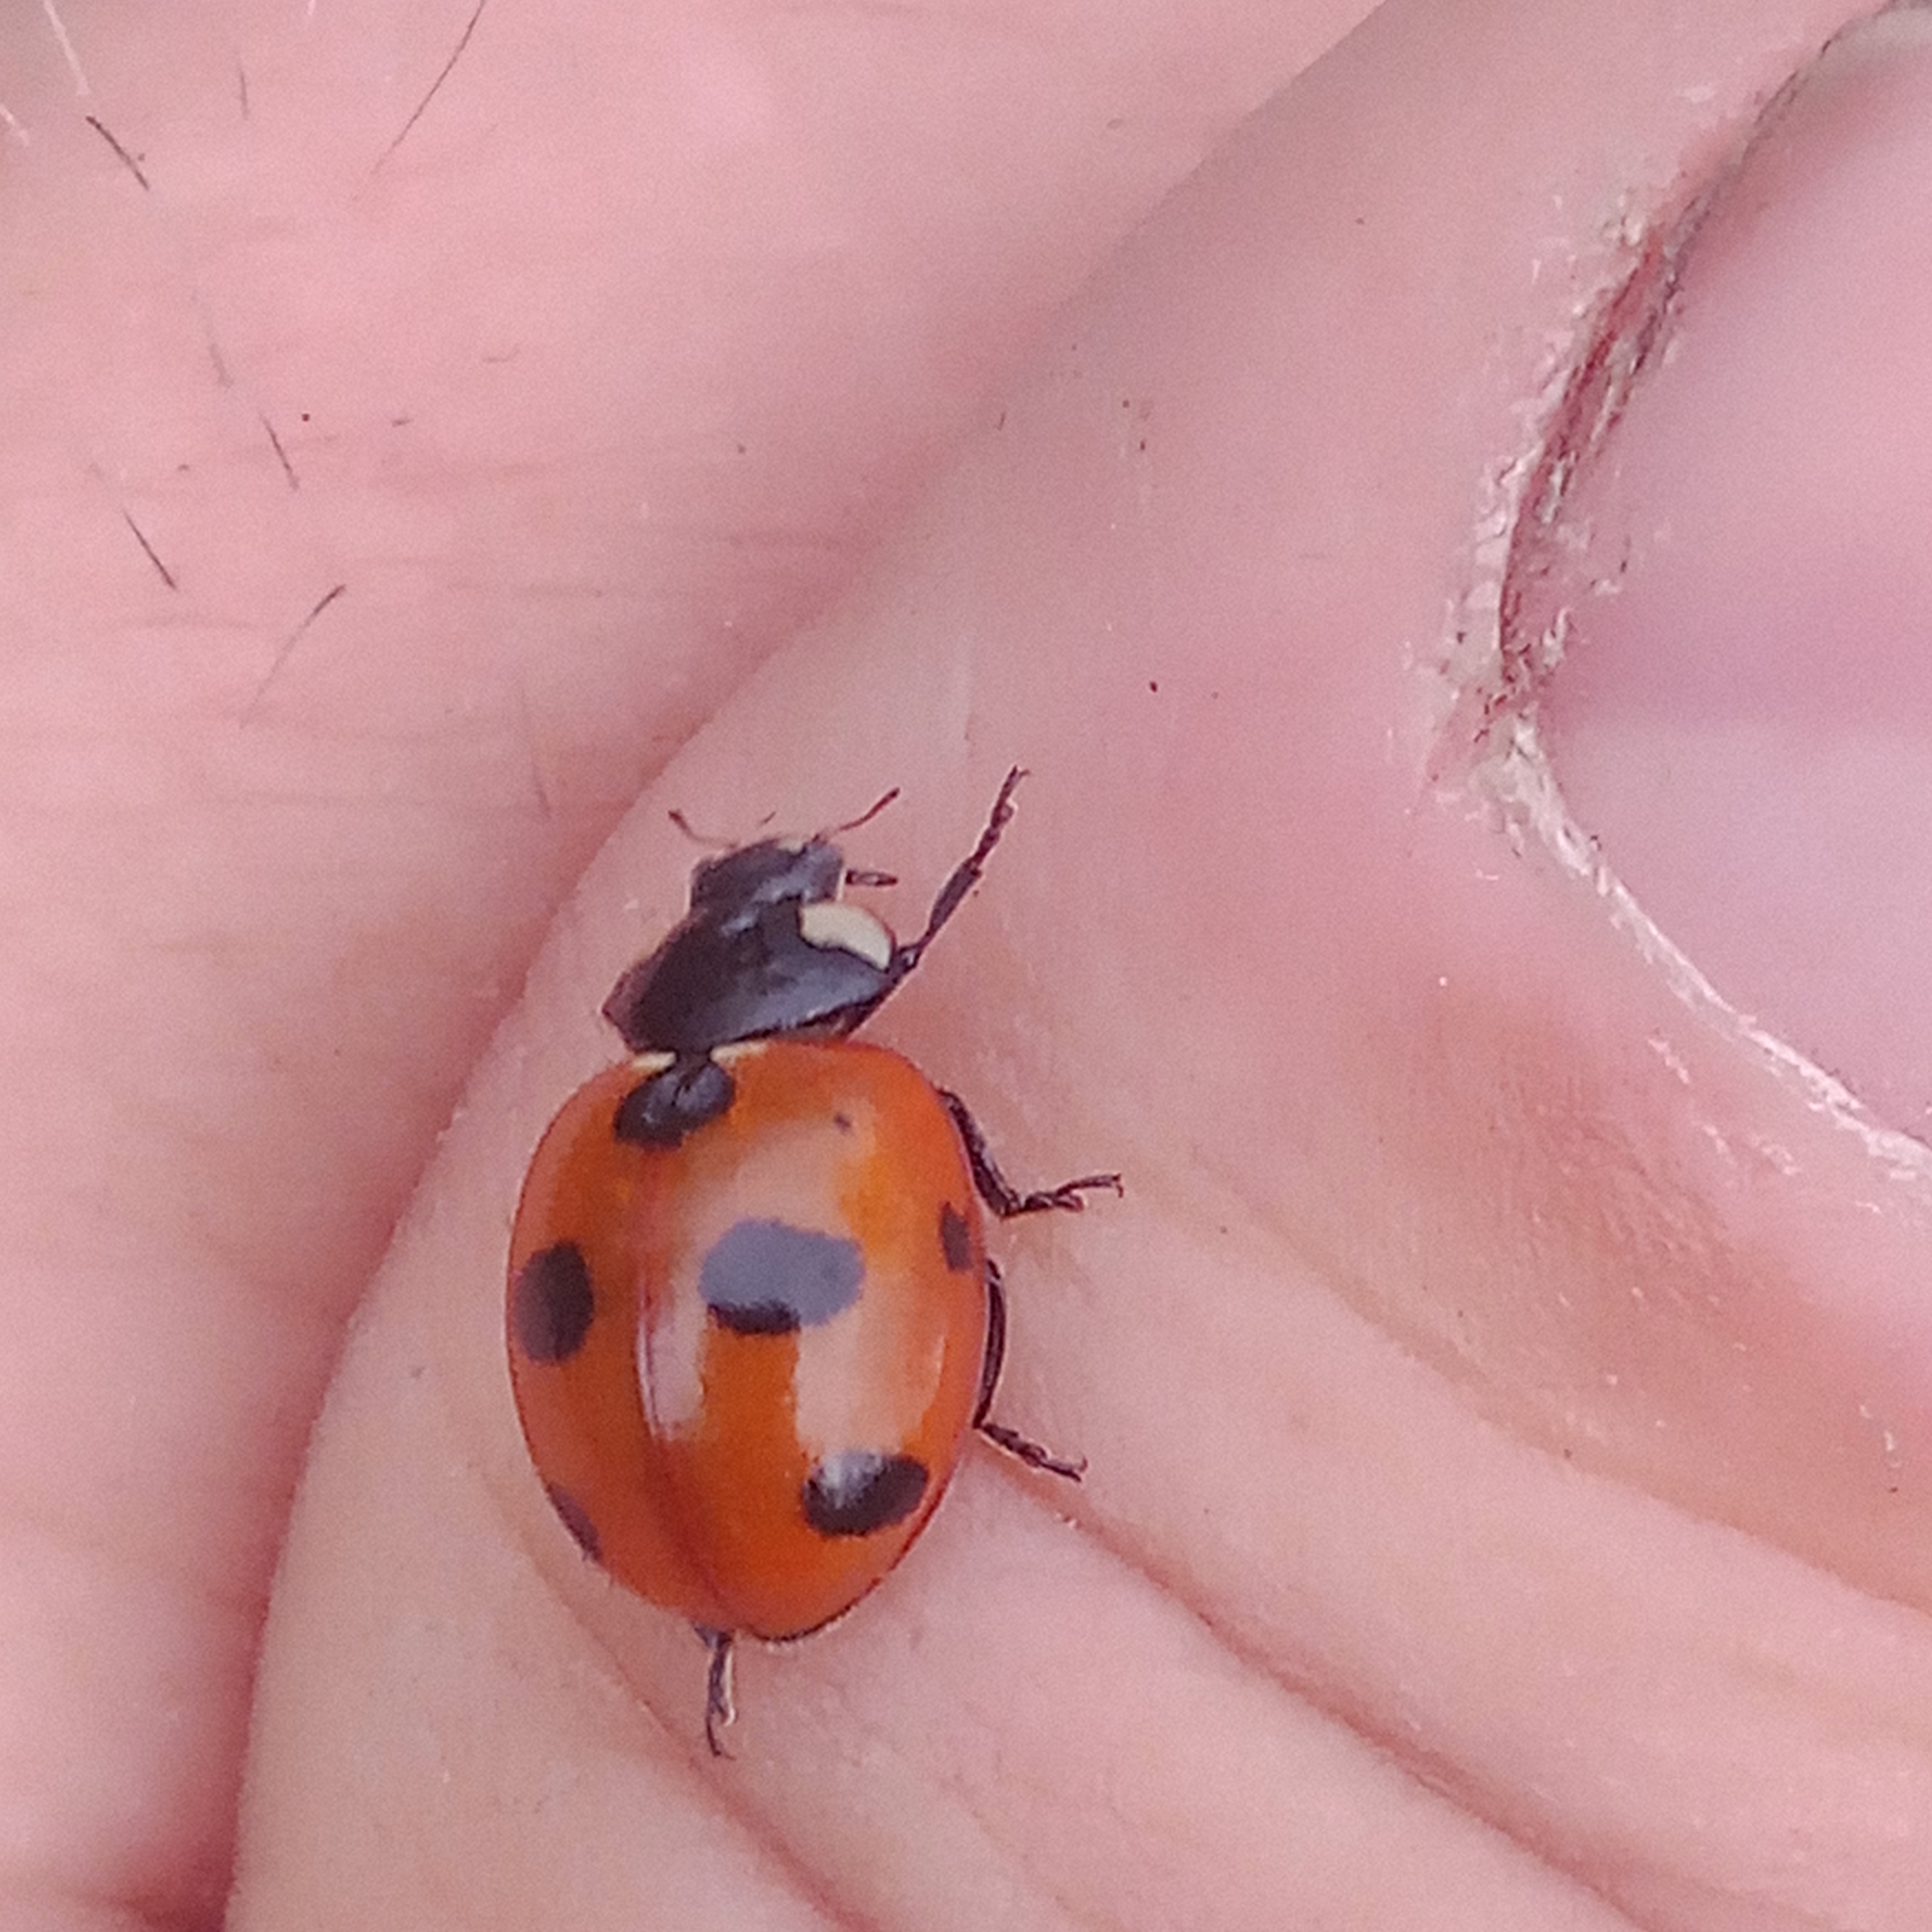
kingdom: Animalia
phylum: Arthropoda
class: Insecta
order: Coleoptera
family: Coccinellidae
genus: Coccinella
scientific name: Coccinella magnifica
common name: Scarce 7-spot ladybird
